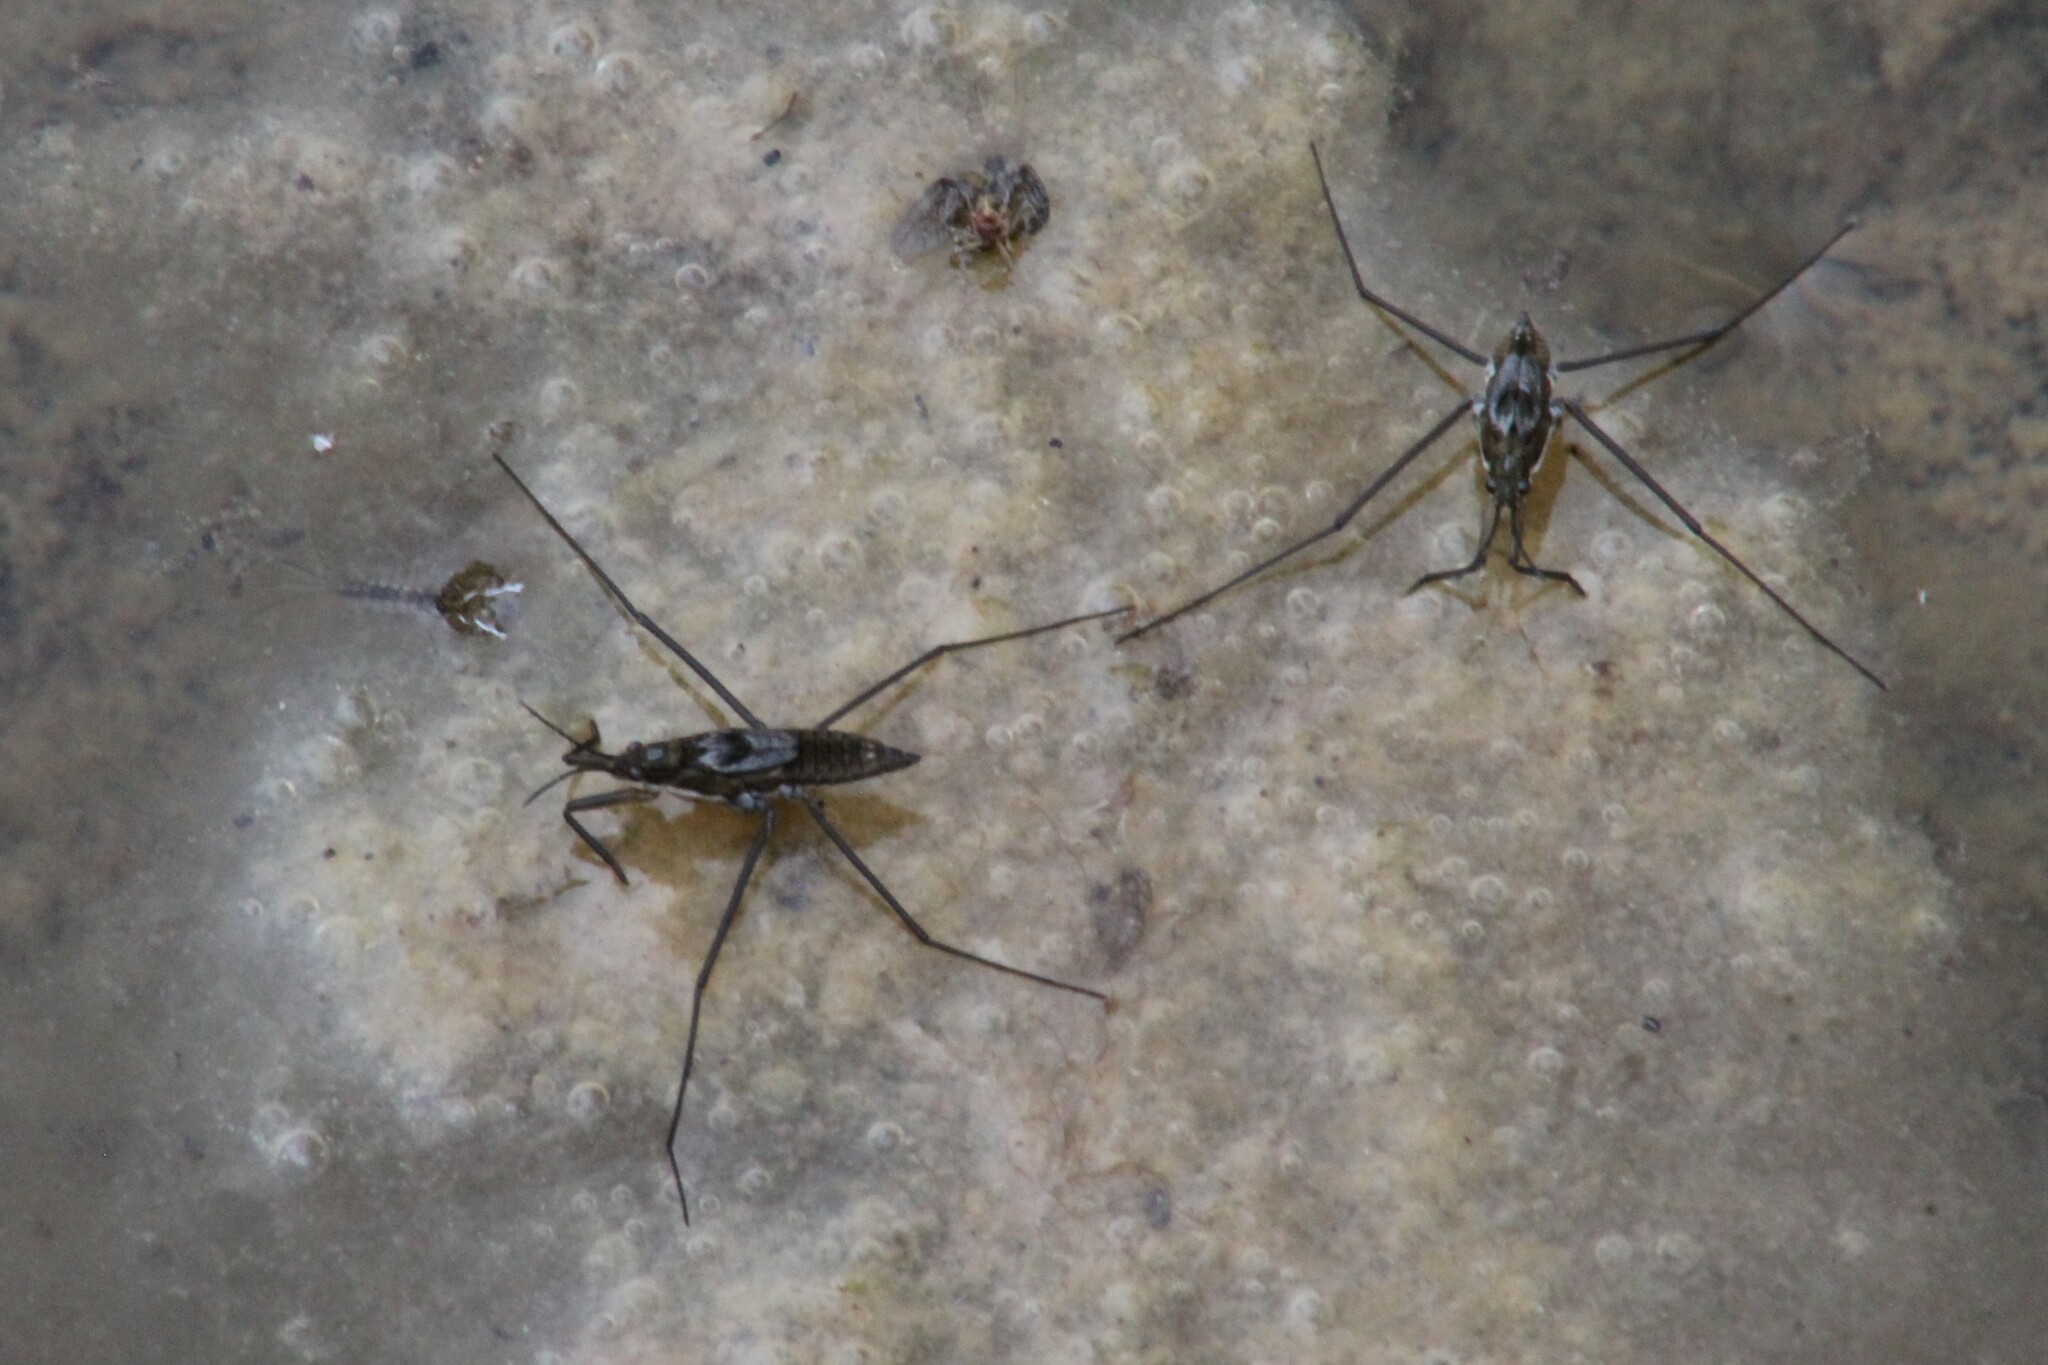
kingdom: Animalia
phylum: Arthropoda
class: Insecta
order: Hemiptera
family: Gerridae
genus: Aquarius
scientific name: Aquarius remigis
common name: Common water strider
